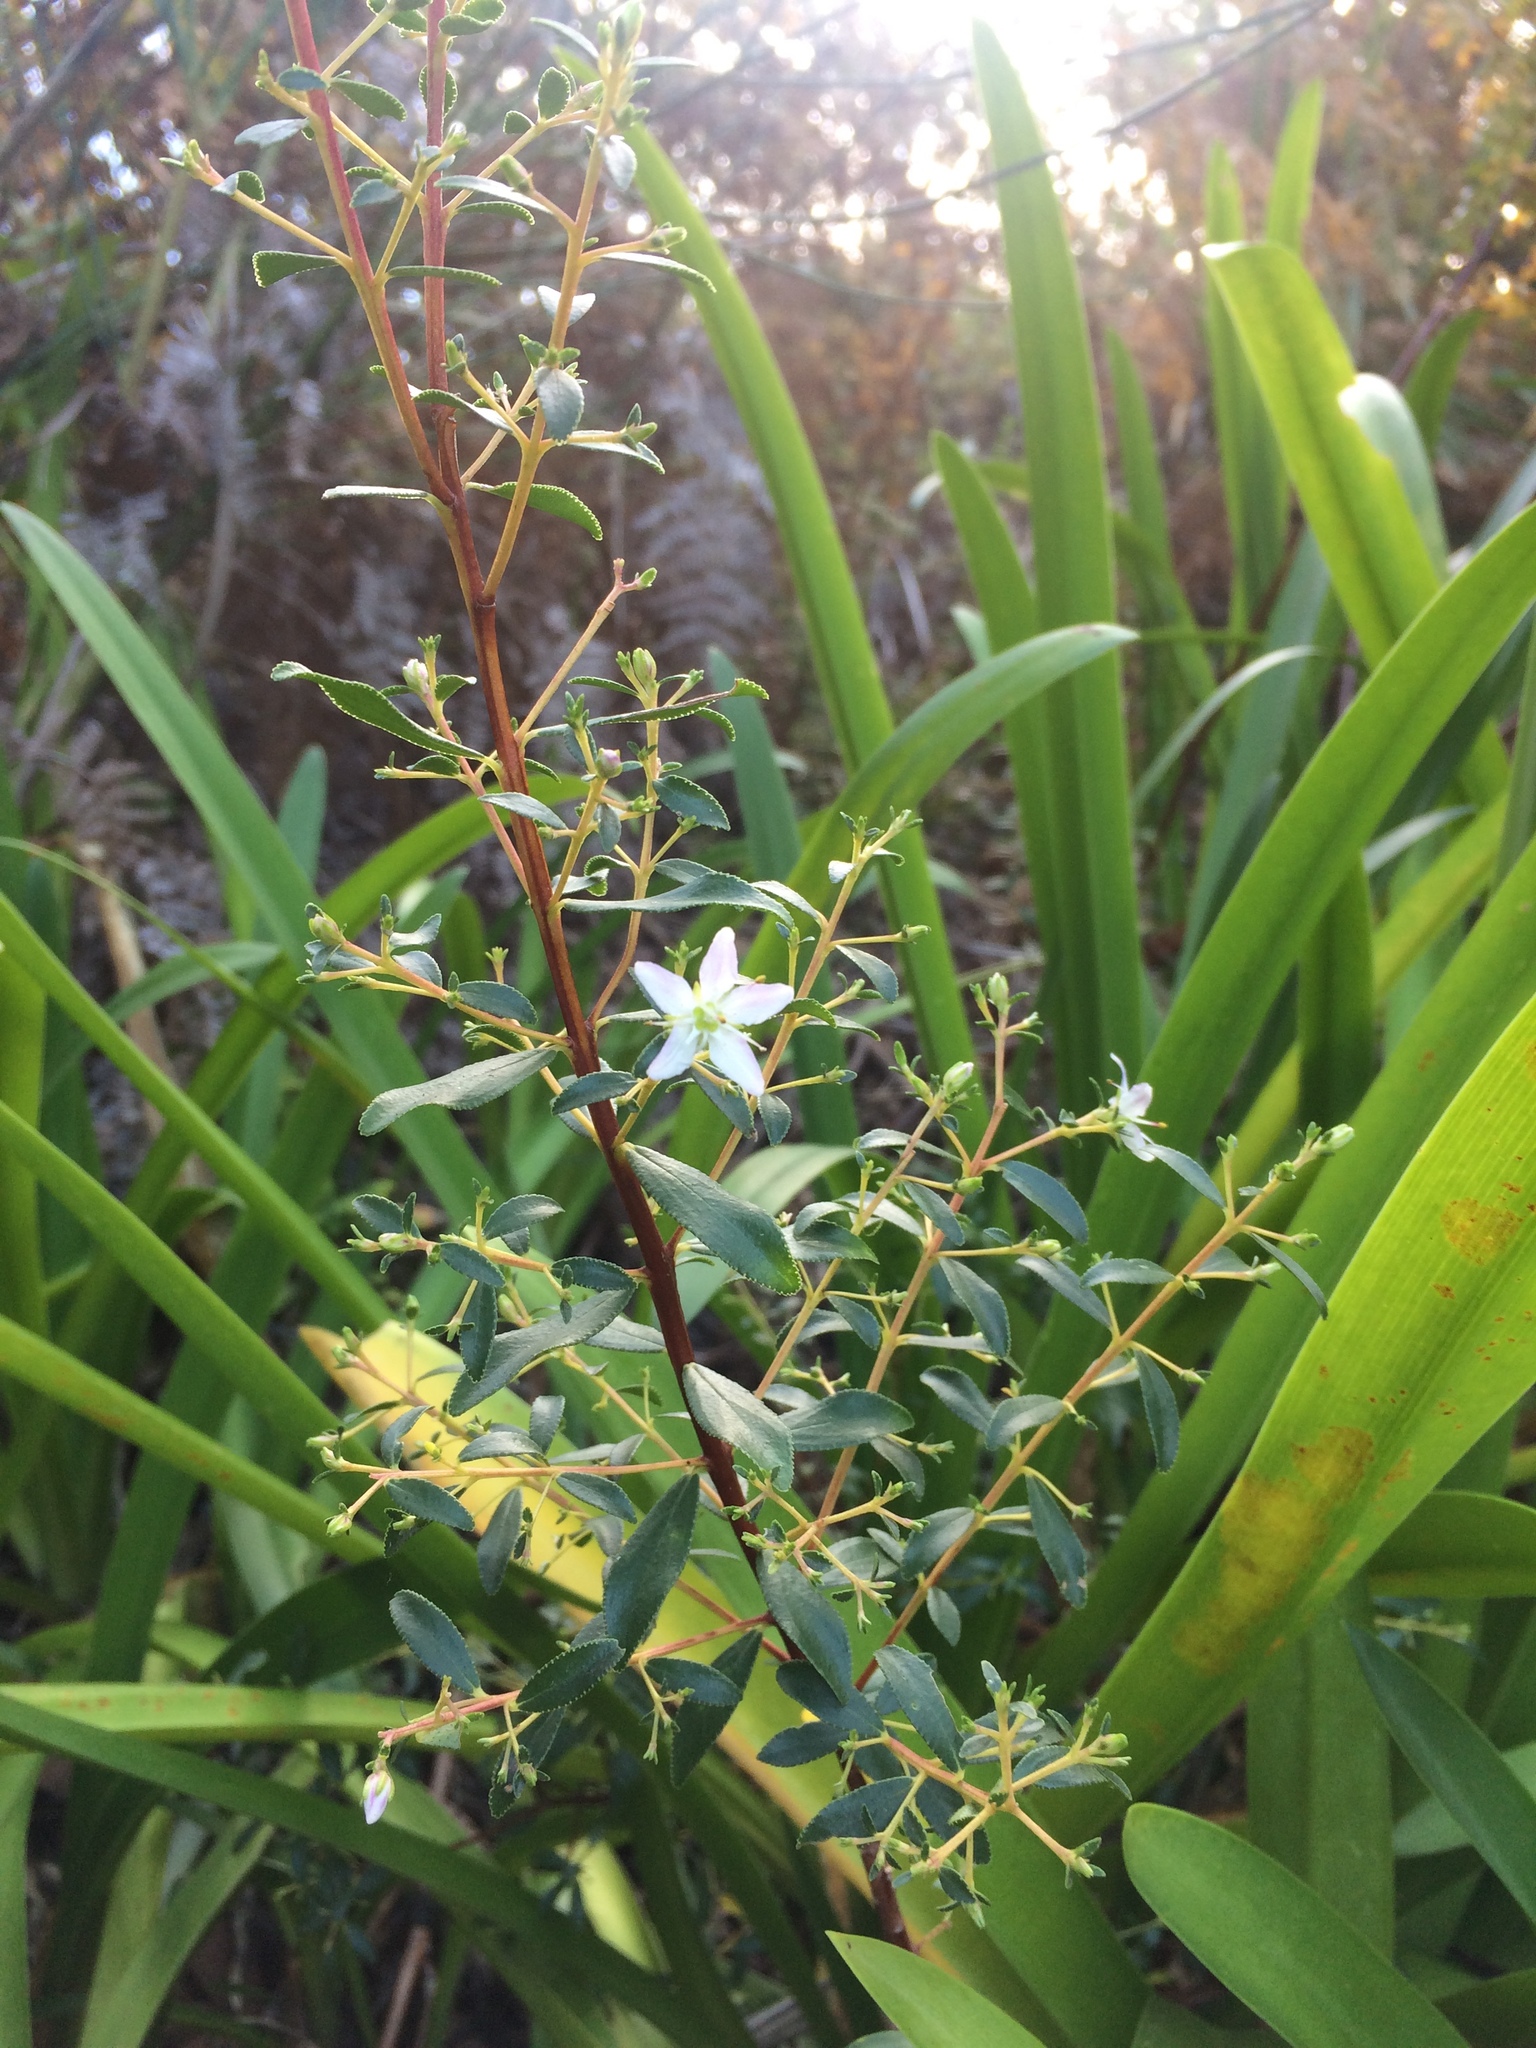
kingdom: Plantae
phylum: Tracheophyta
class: Magnoliopsida
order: Sapindales
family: Rutaceae
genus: Agathosma
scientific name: Agathosma betulina
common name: Mountain buchu
